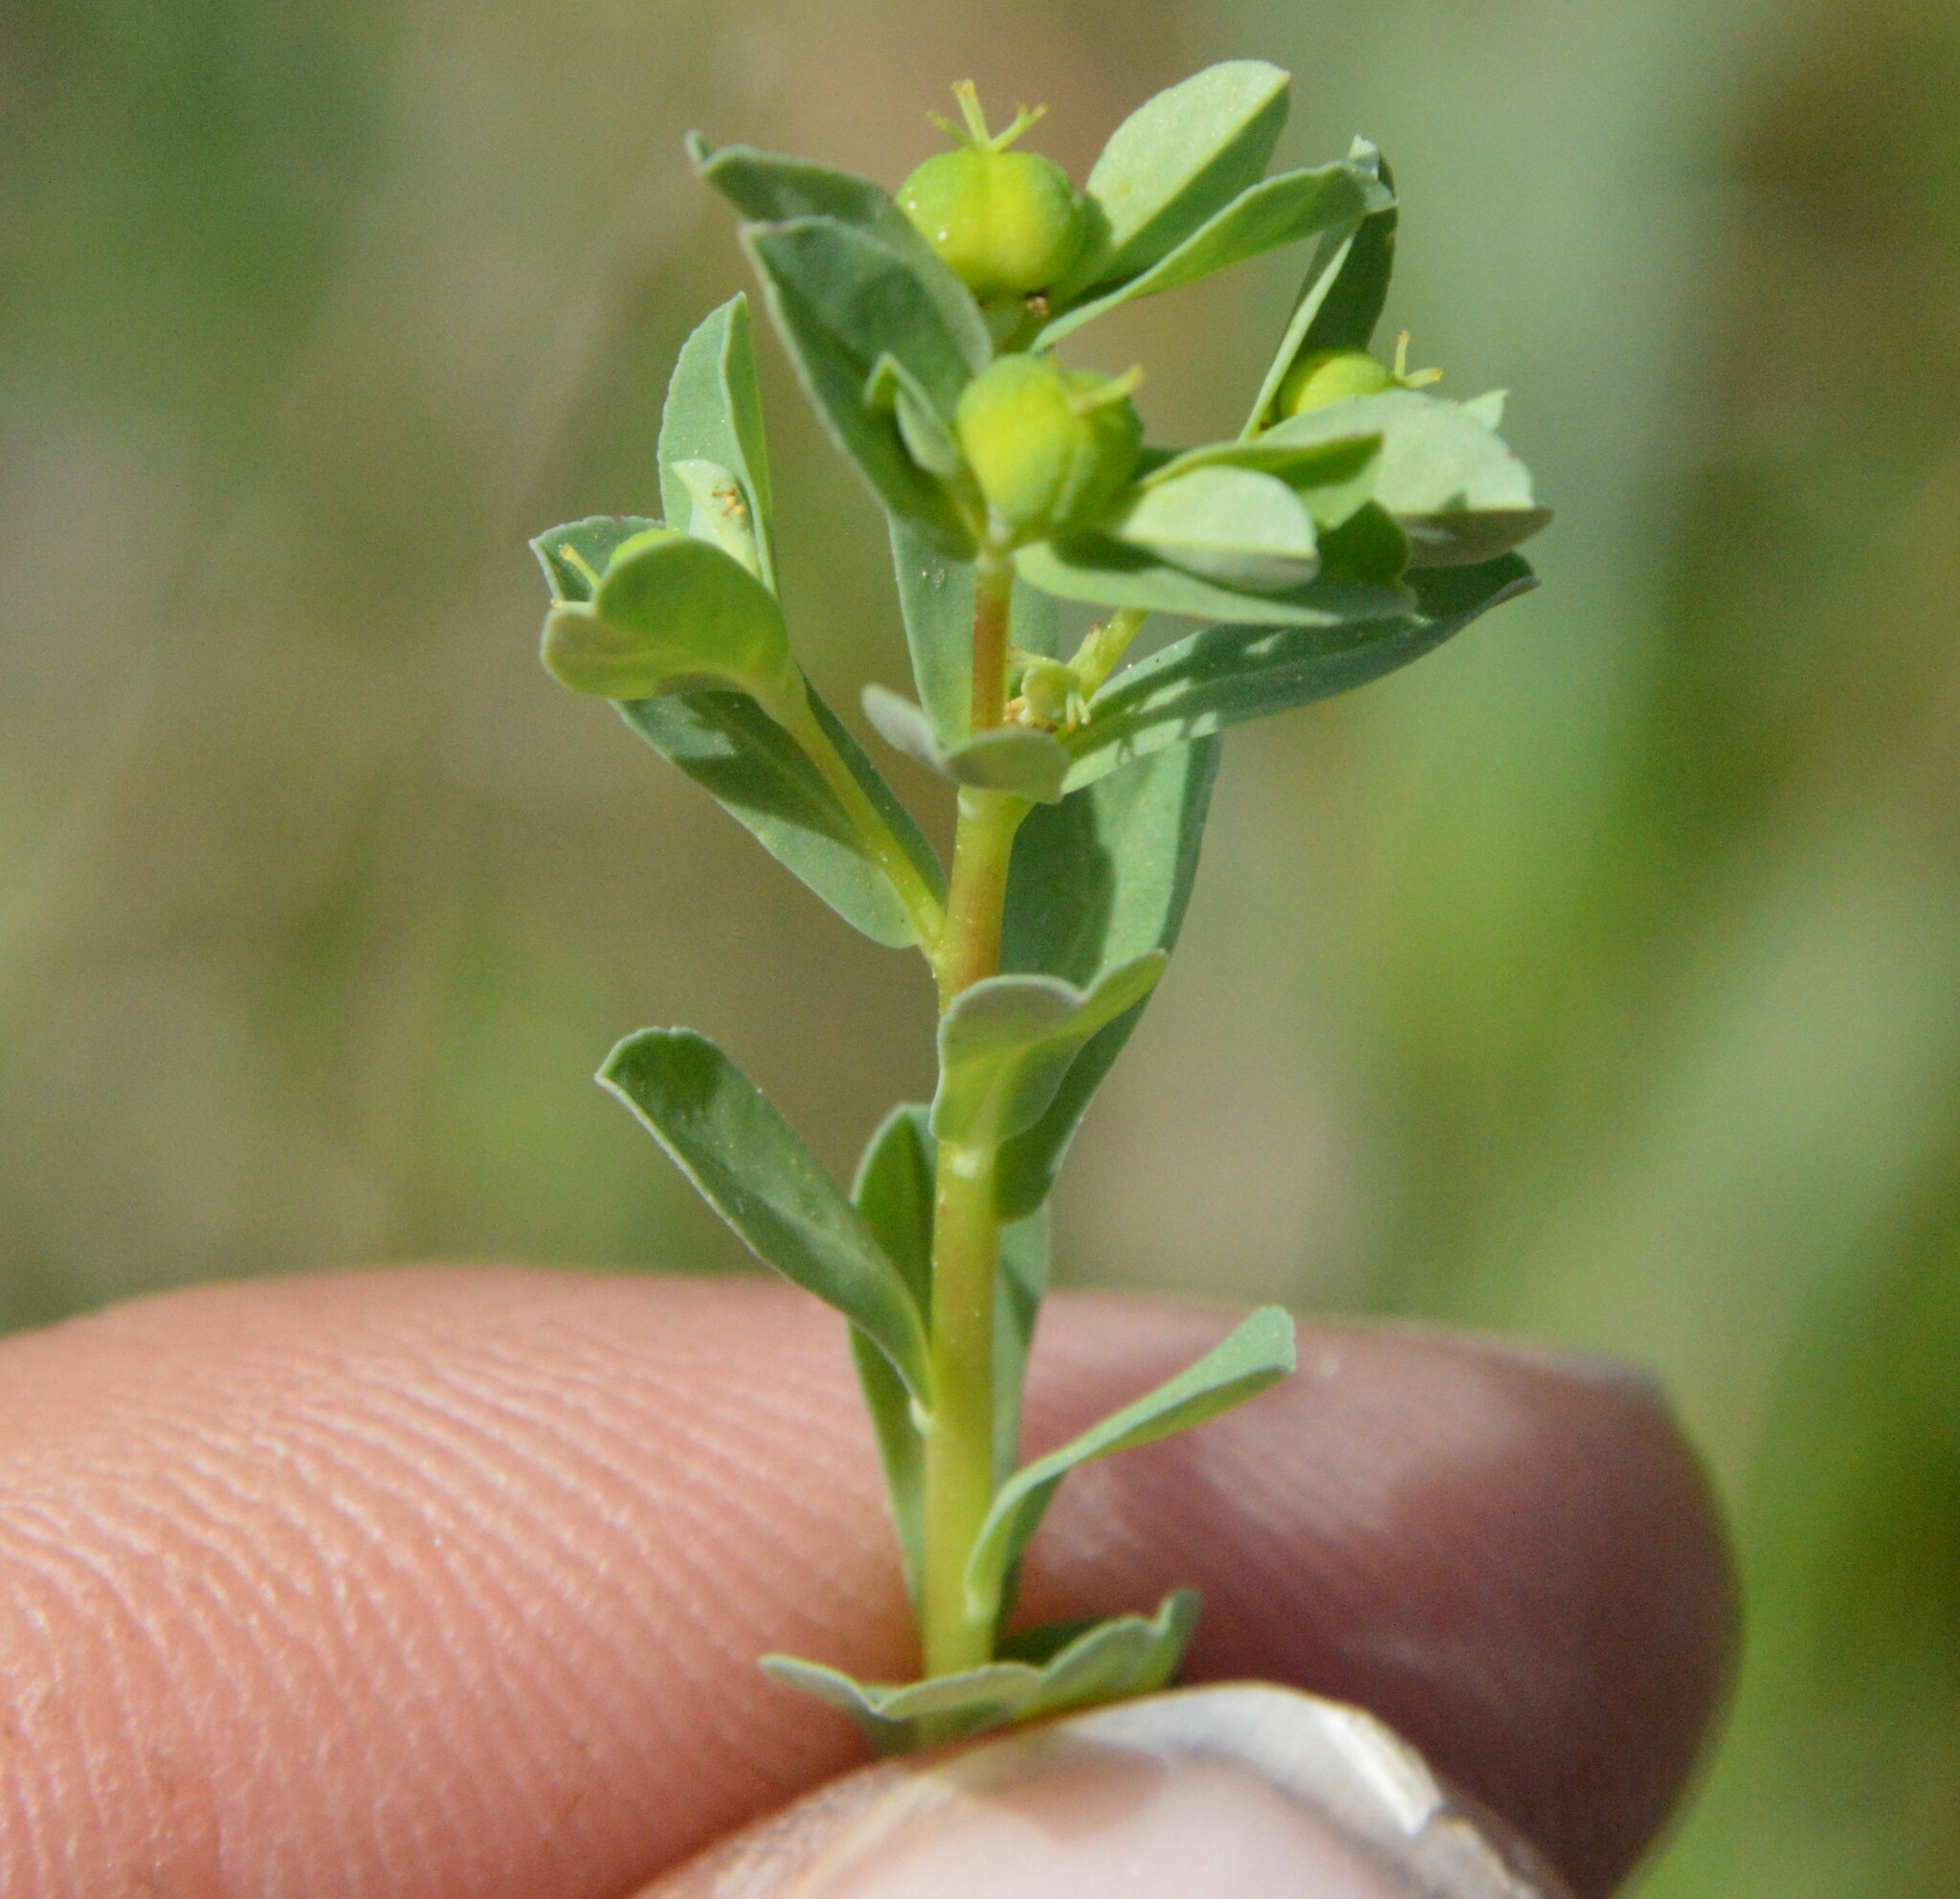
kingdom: Plantae
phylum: Tracheophyta
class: Magnoliopsida
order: Malpighiales
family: Euphorbiaceae
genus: Euphorbia
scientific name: Euphorbia texana
